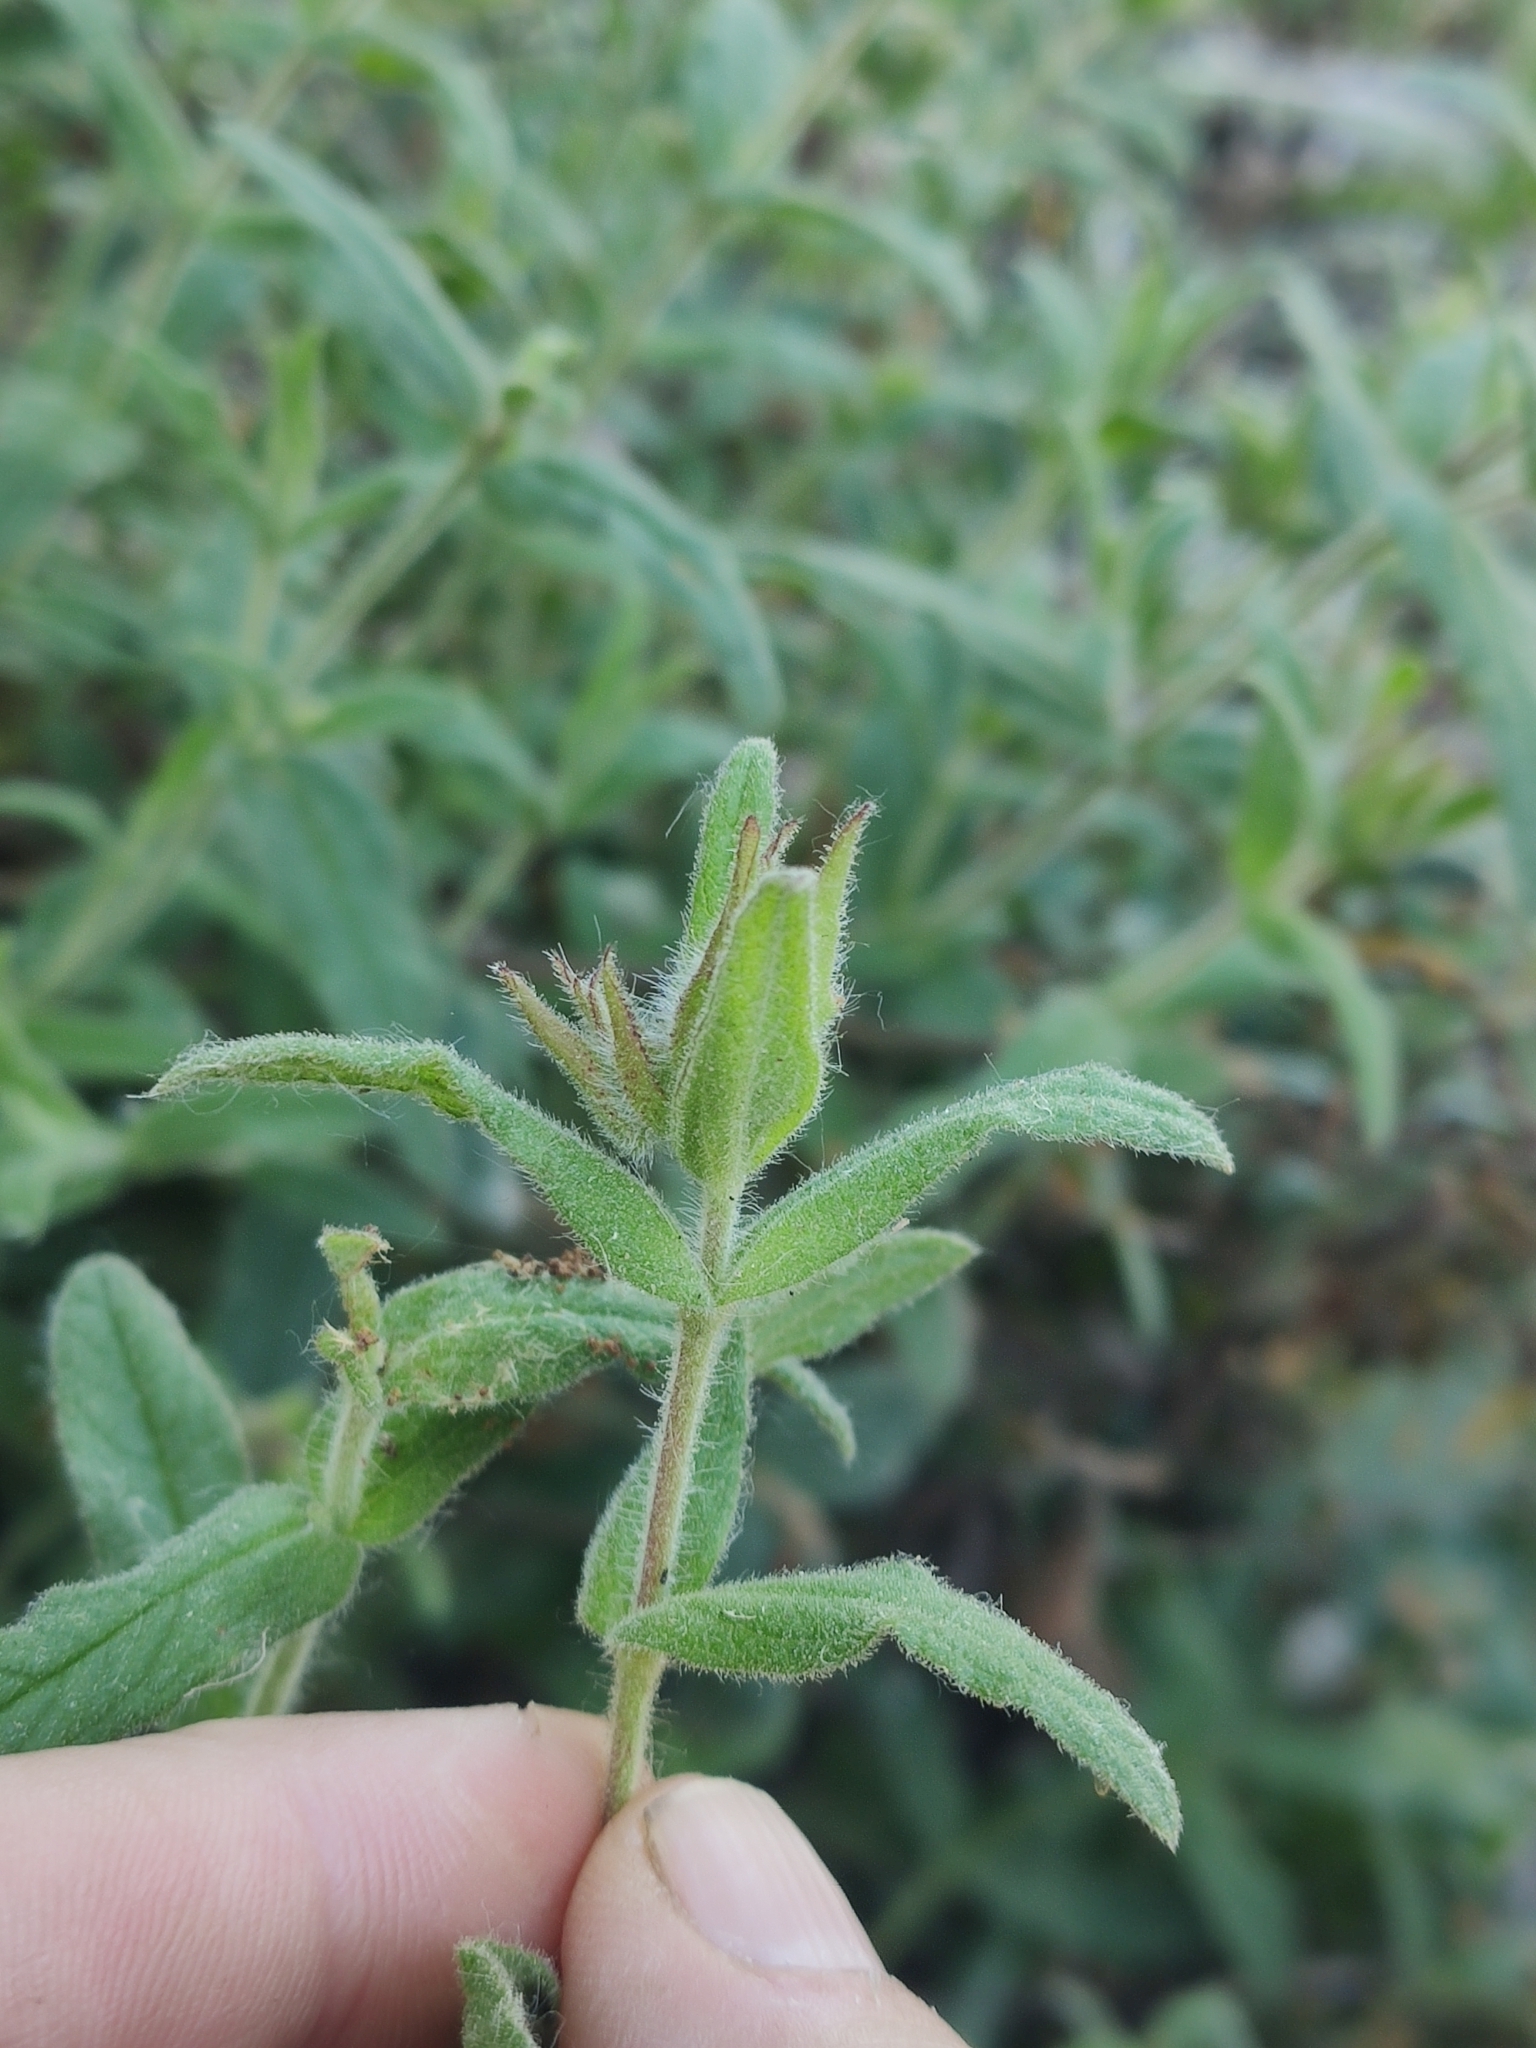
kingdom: Plantae
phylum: Tracheophyta
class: Magnoliopsida
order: Malvales
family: Cistaceae
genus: Cistus
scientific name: Cistus inflatus
